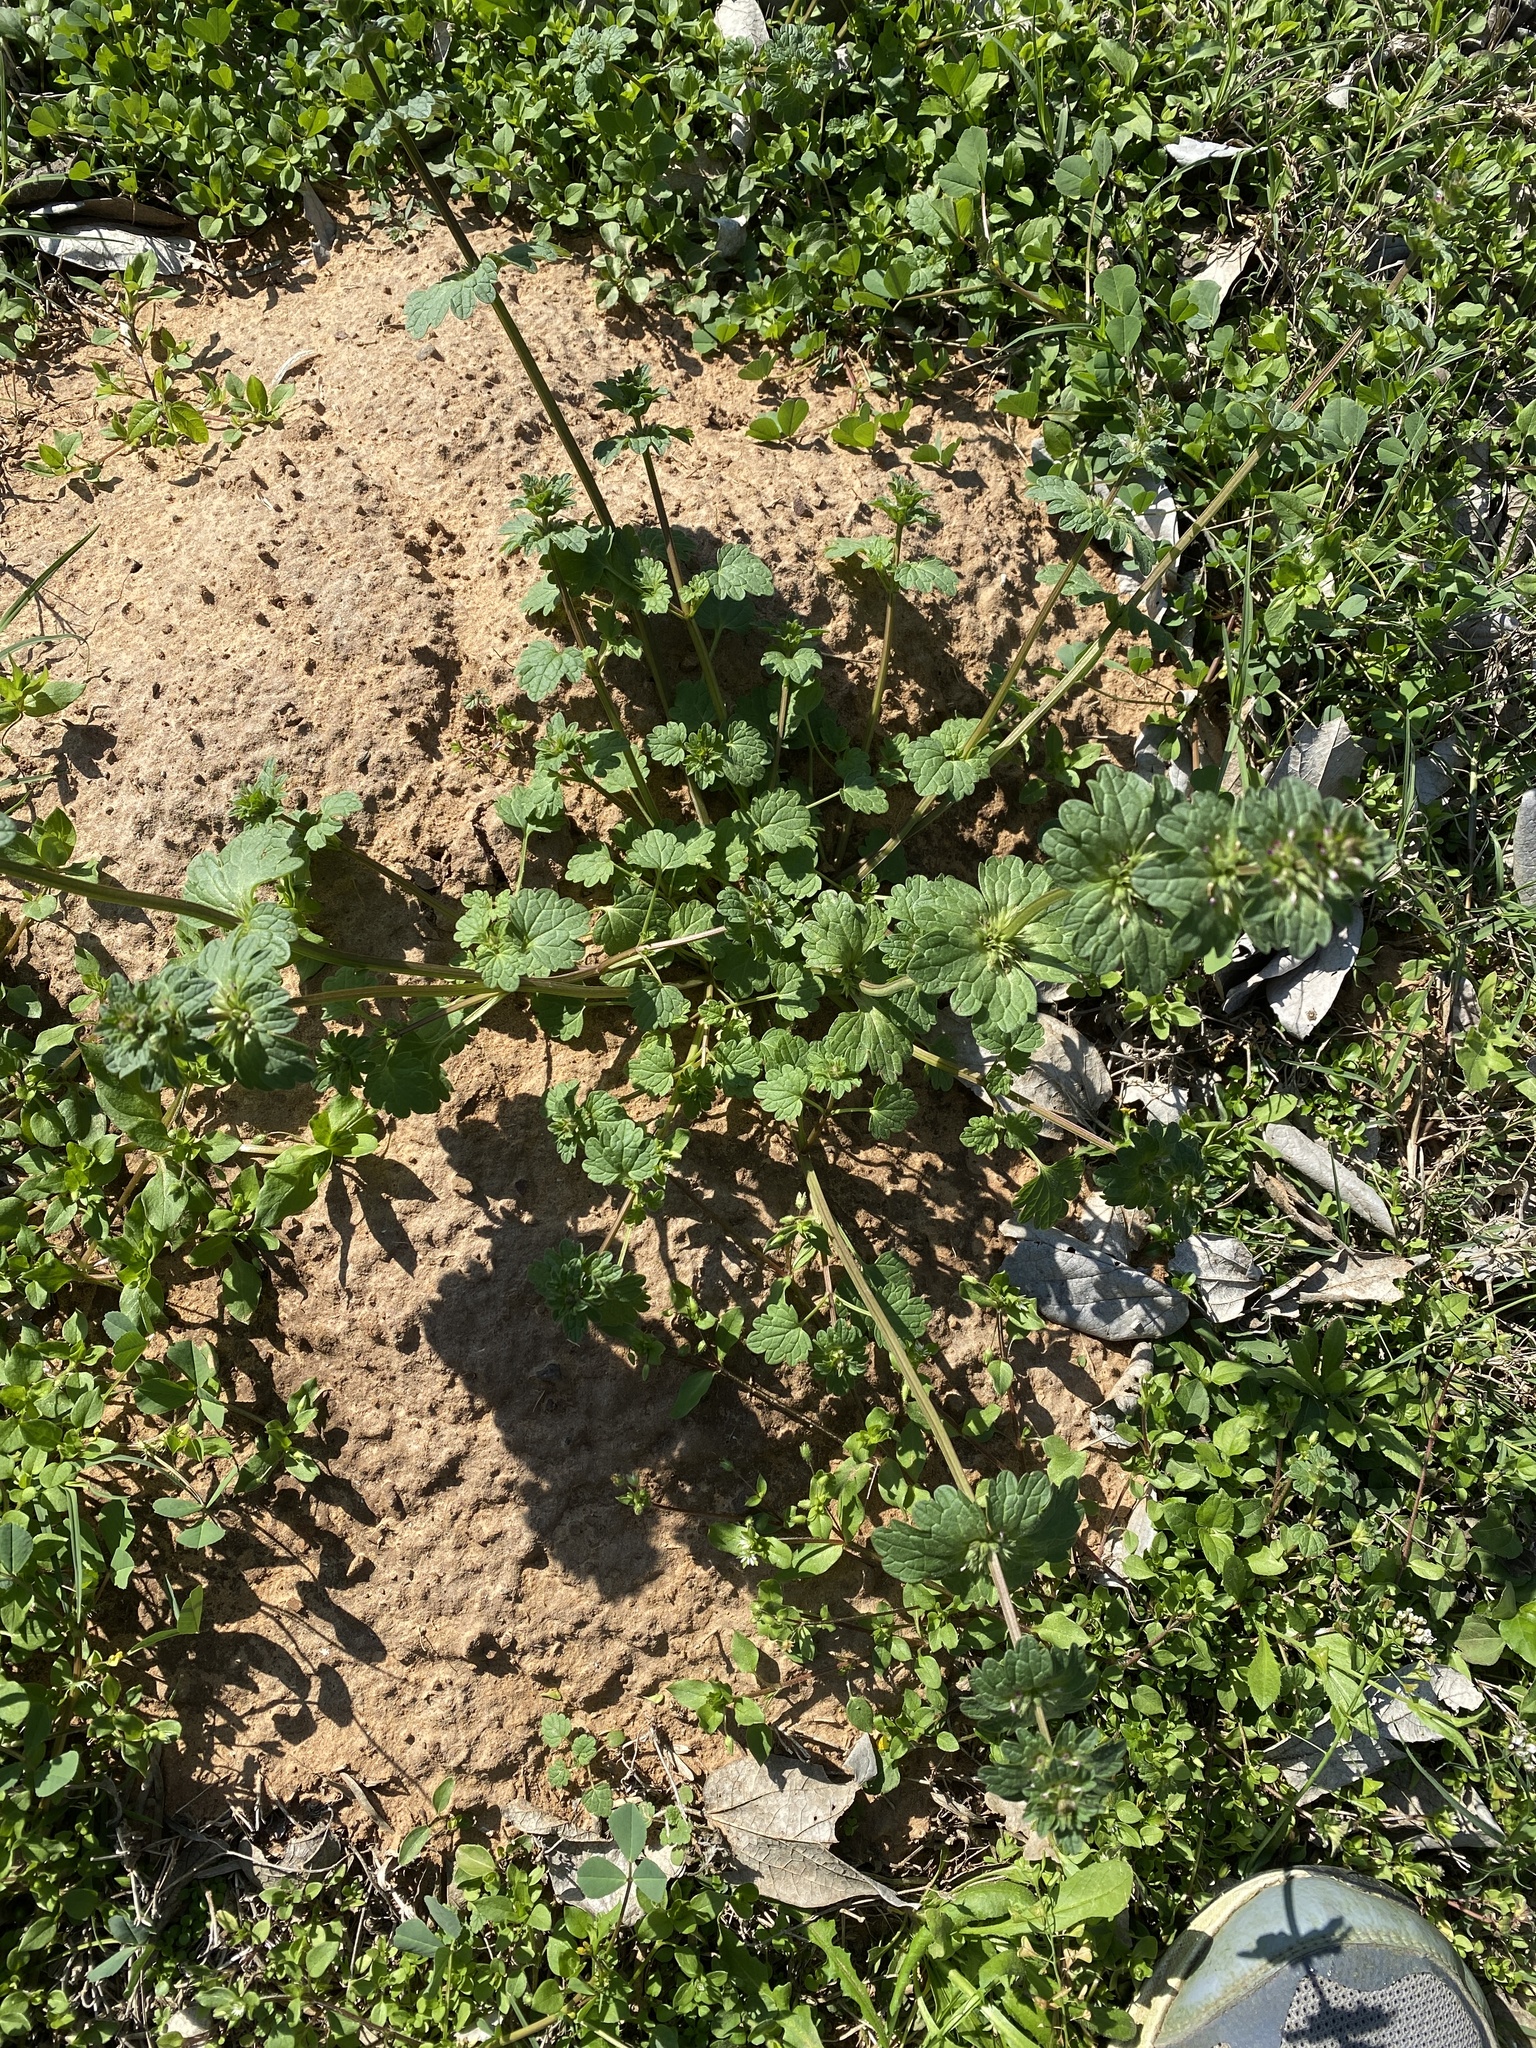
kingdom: Plantae
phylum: Tracheophyta
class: Magnoliopsida
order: Lamiales
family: Lamiaceae
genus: Lamium
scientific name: Lamium amplexicaule
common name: Henbit dead-nettle
